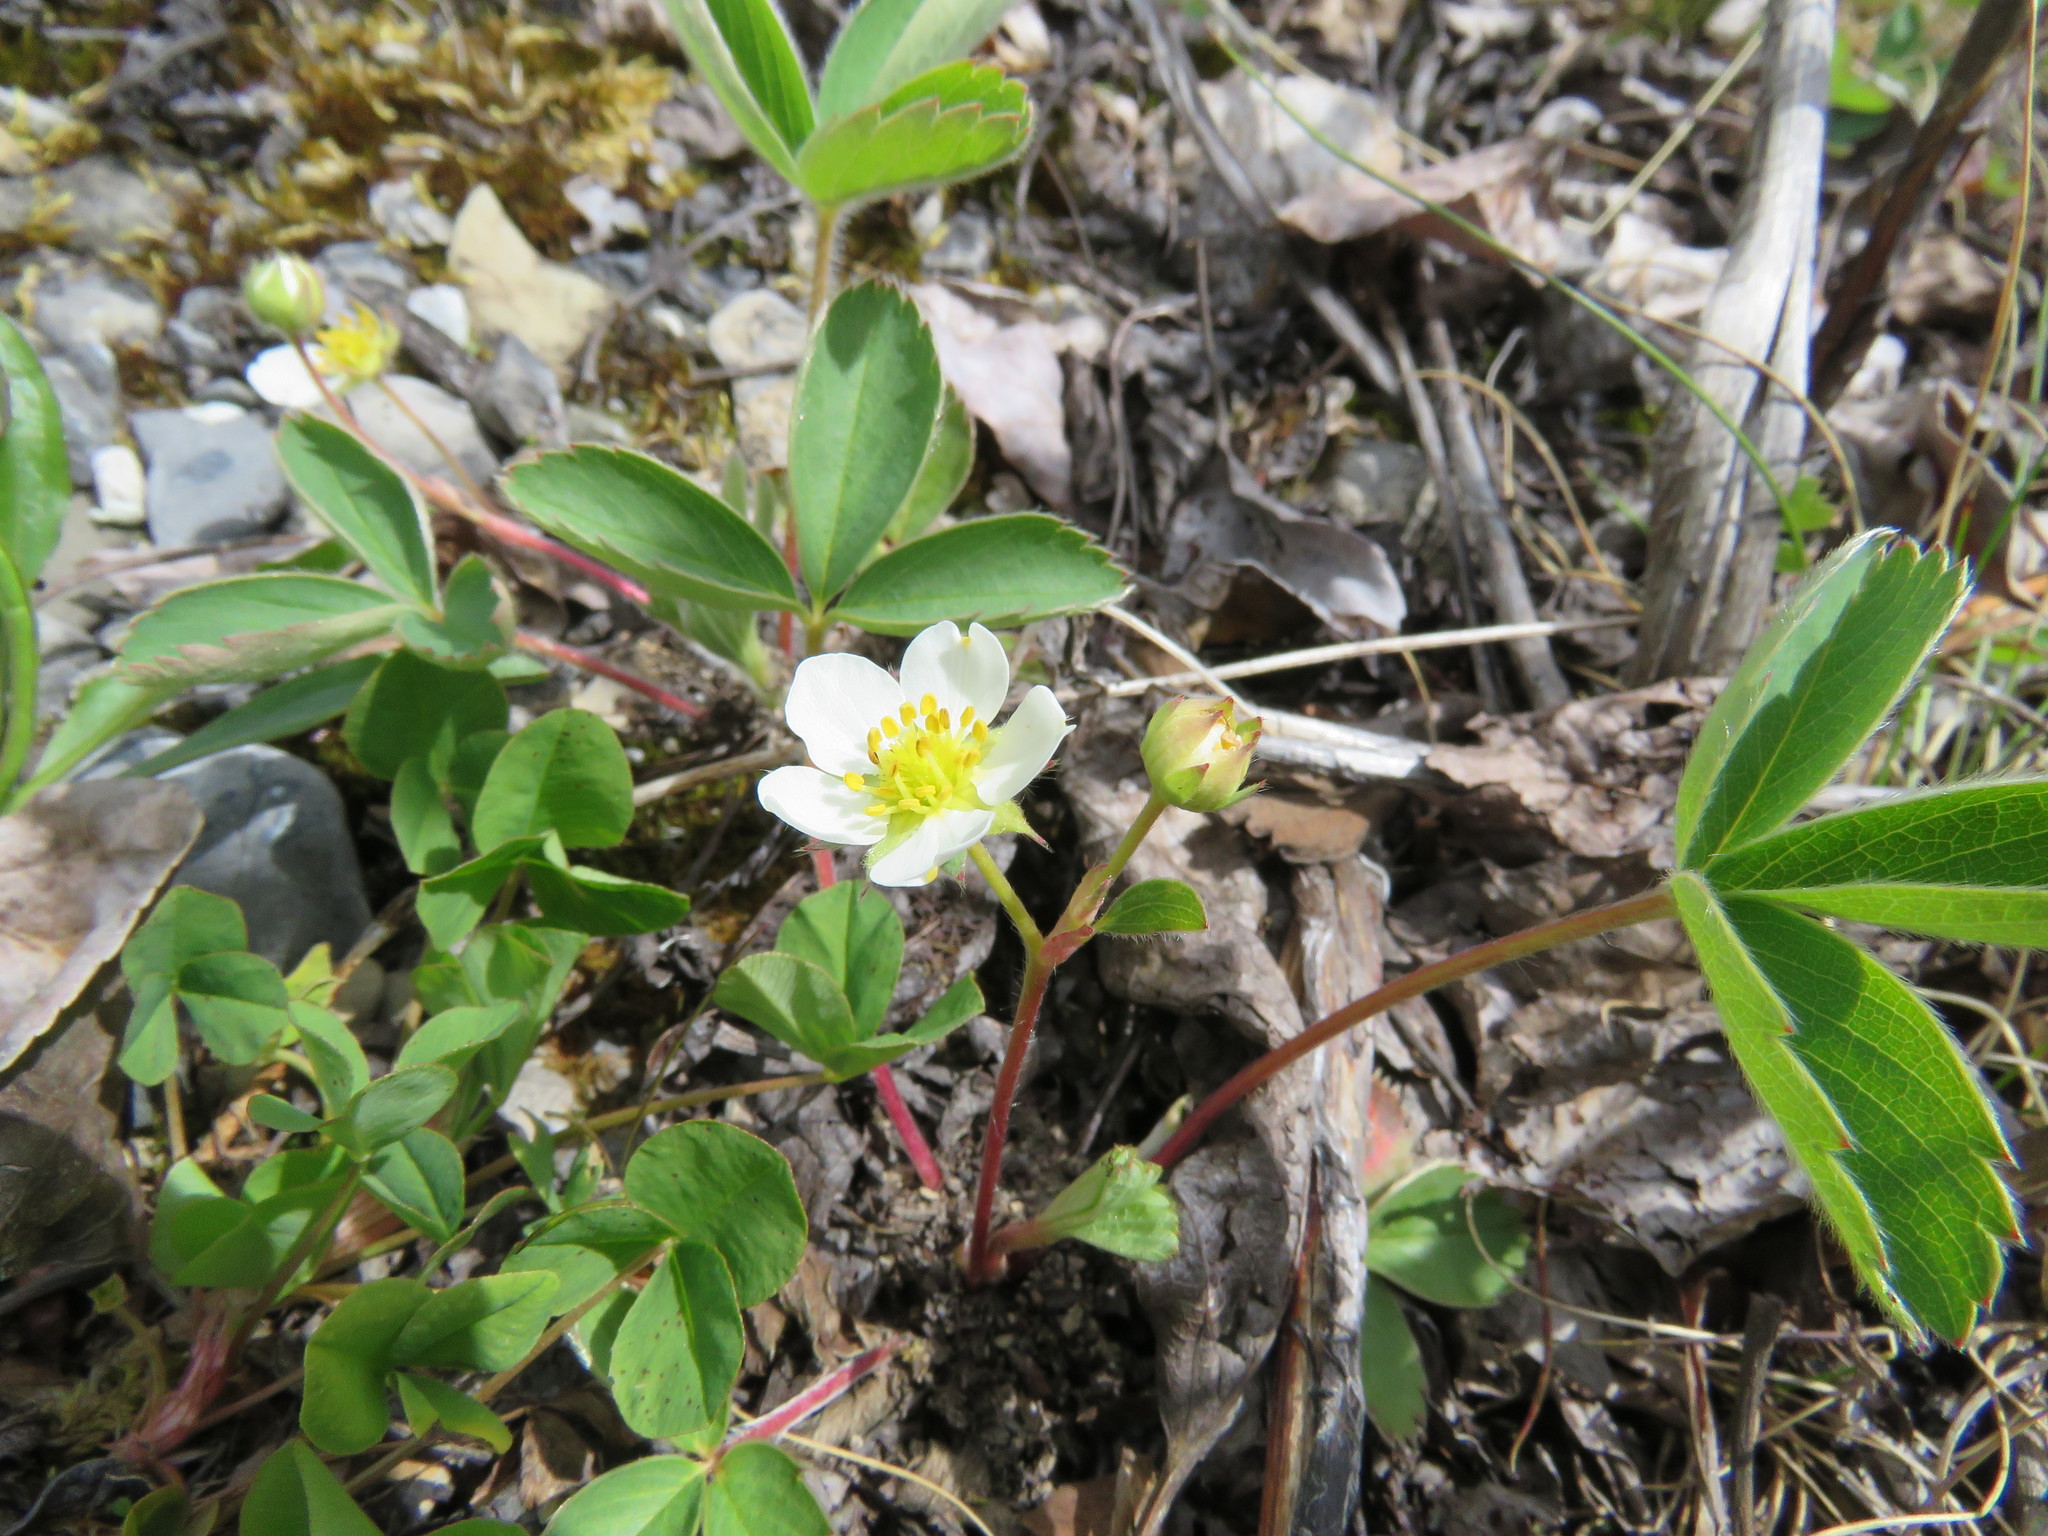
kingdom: Plantae
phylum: Tracheophyta
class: Magnoliopsida
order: Rosales
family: Rosaceae
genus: Fragaria
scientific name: Fragaria virginiana
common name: Thickleaved wild strawberry
